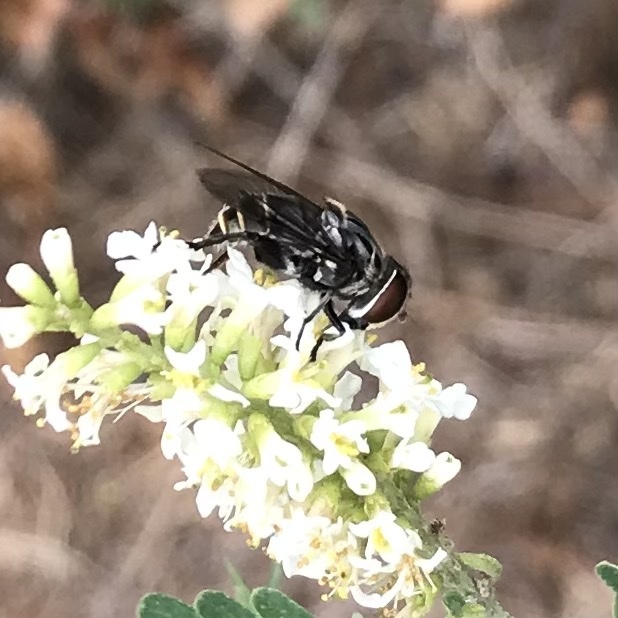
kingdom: Animalia
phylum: Arthropoda
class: Insecta
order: Diptera
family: Syrphidae
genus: Palpada
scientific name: Palpada furcata
